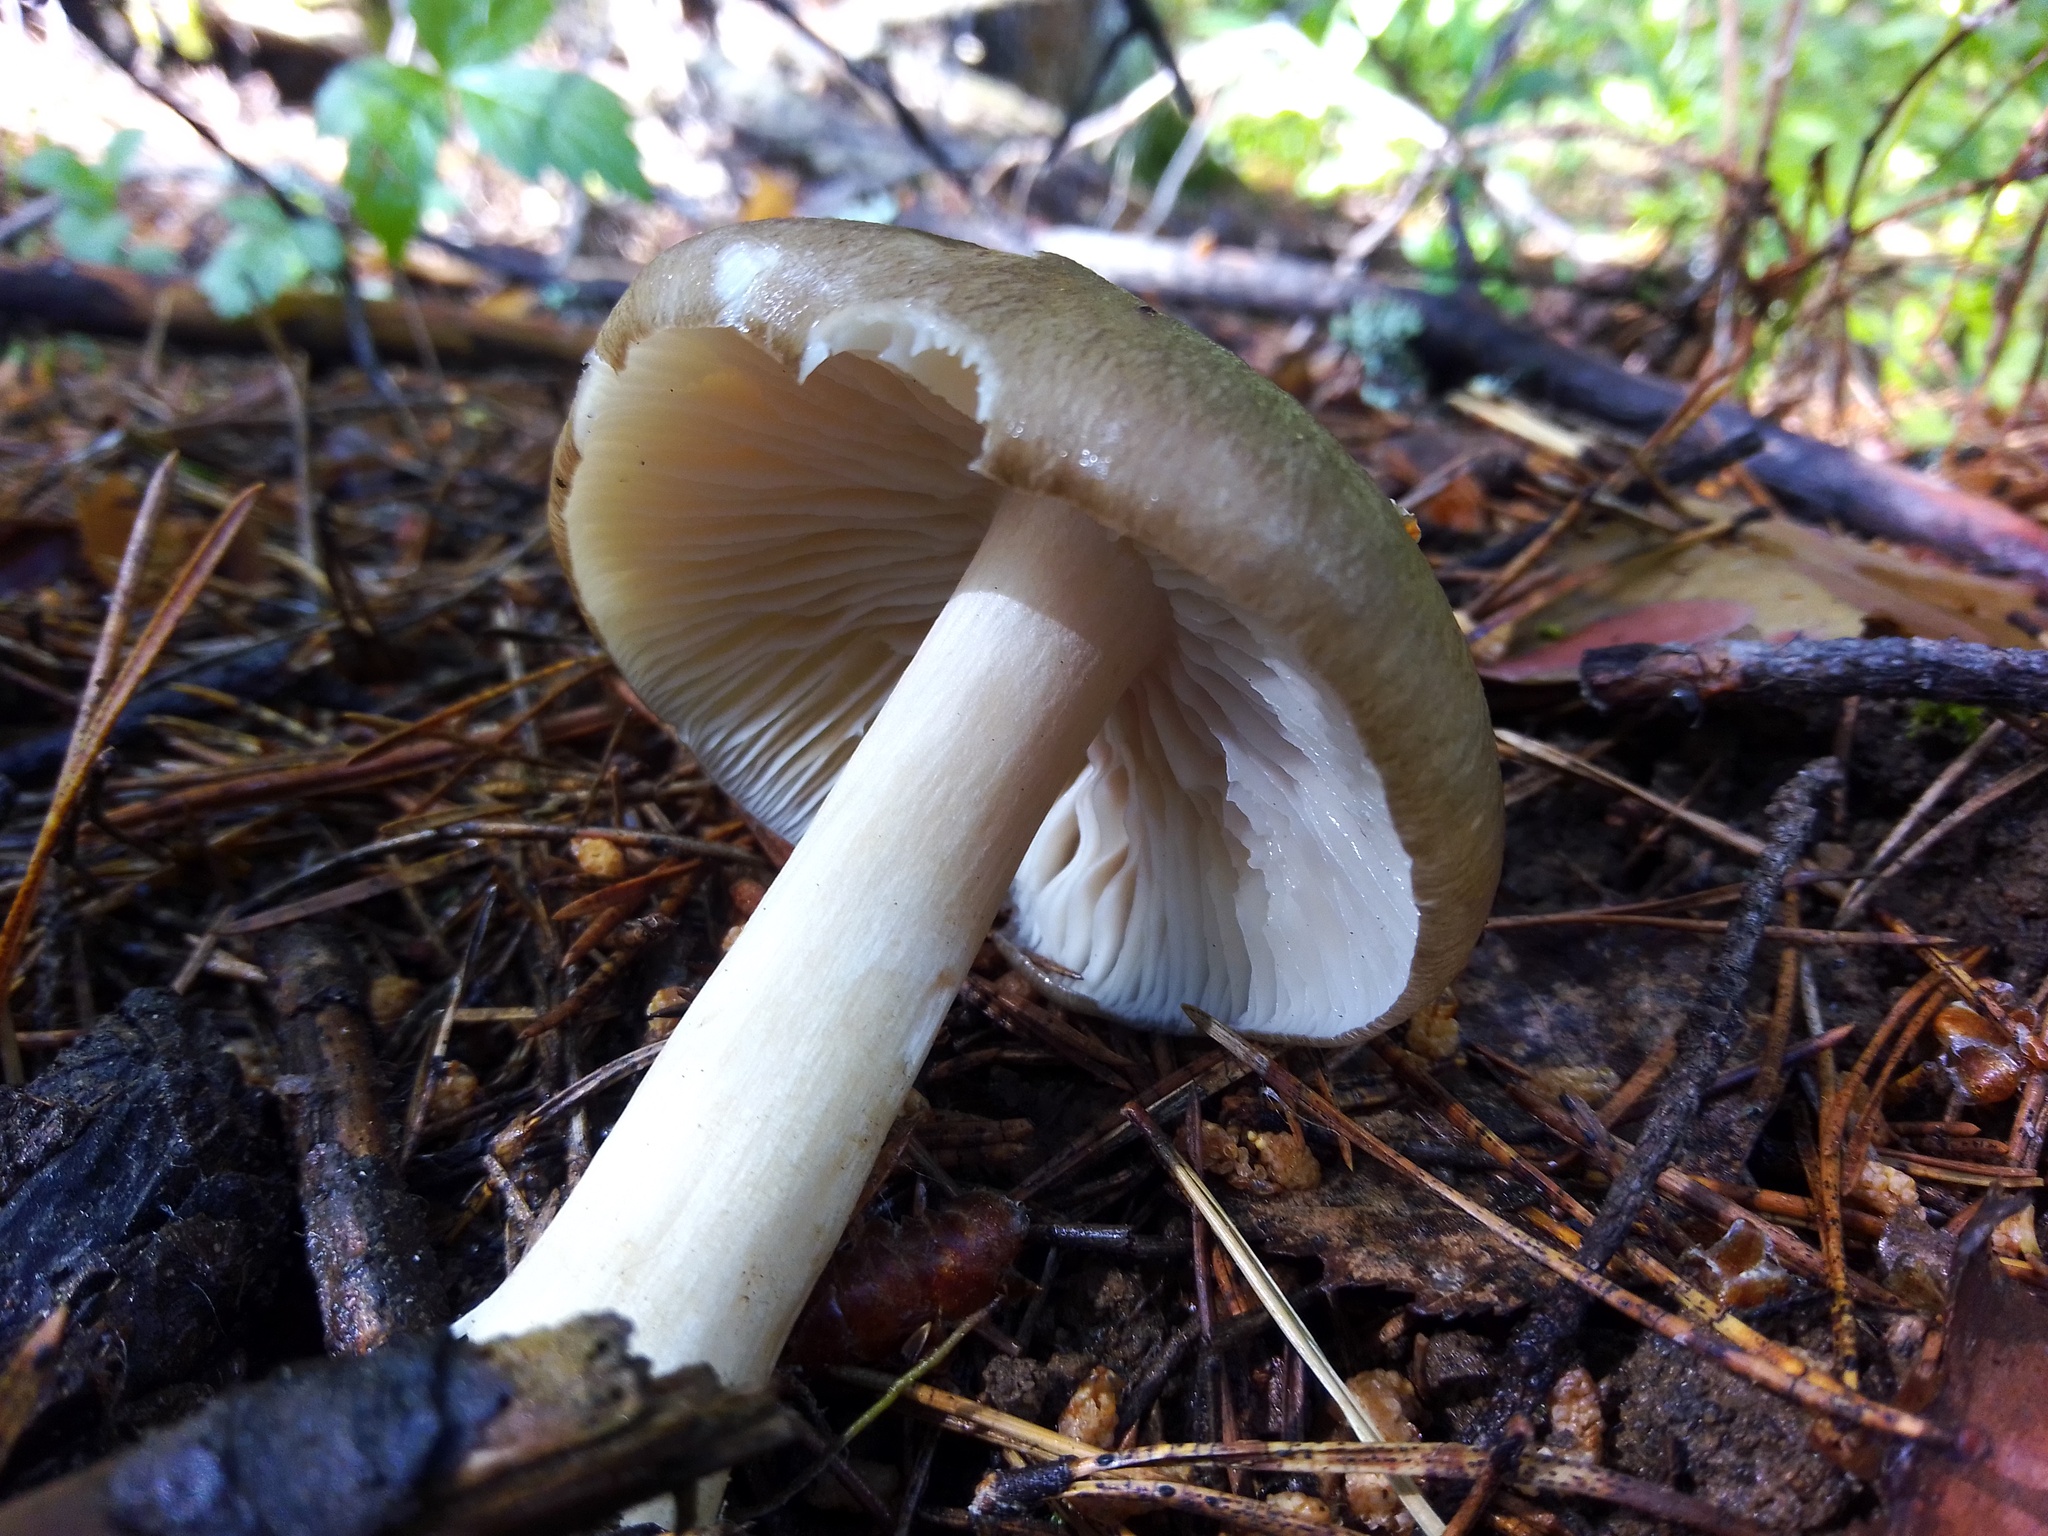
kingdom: Fungi
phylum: Basidiomycota
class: Agaricomycetes
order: Agaricales
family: Tricholomataceae
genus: Megacollybia
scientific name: Megacollybia platyphylla
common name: Whitelaced shank
